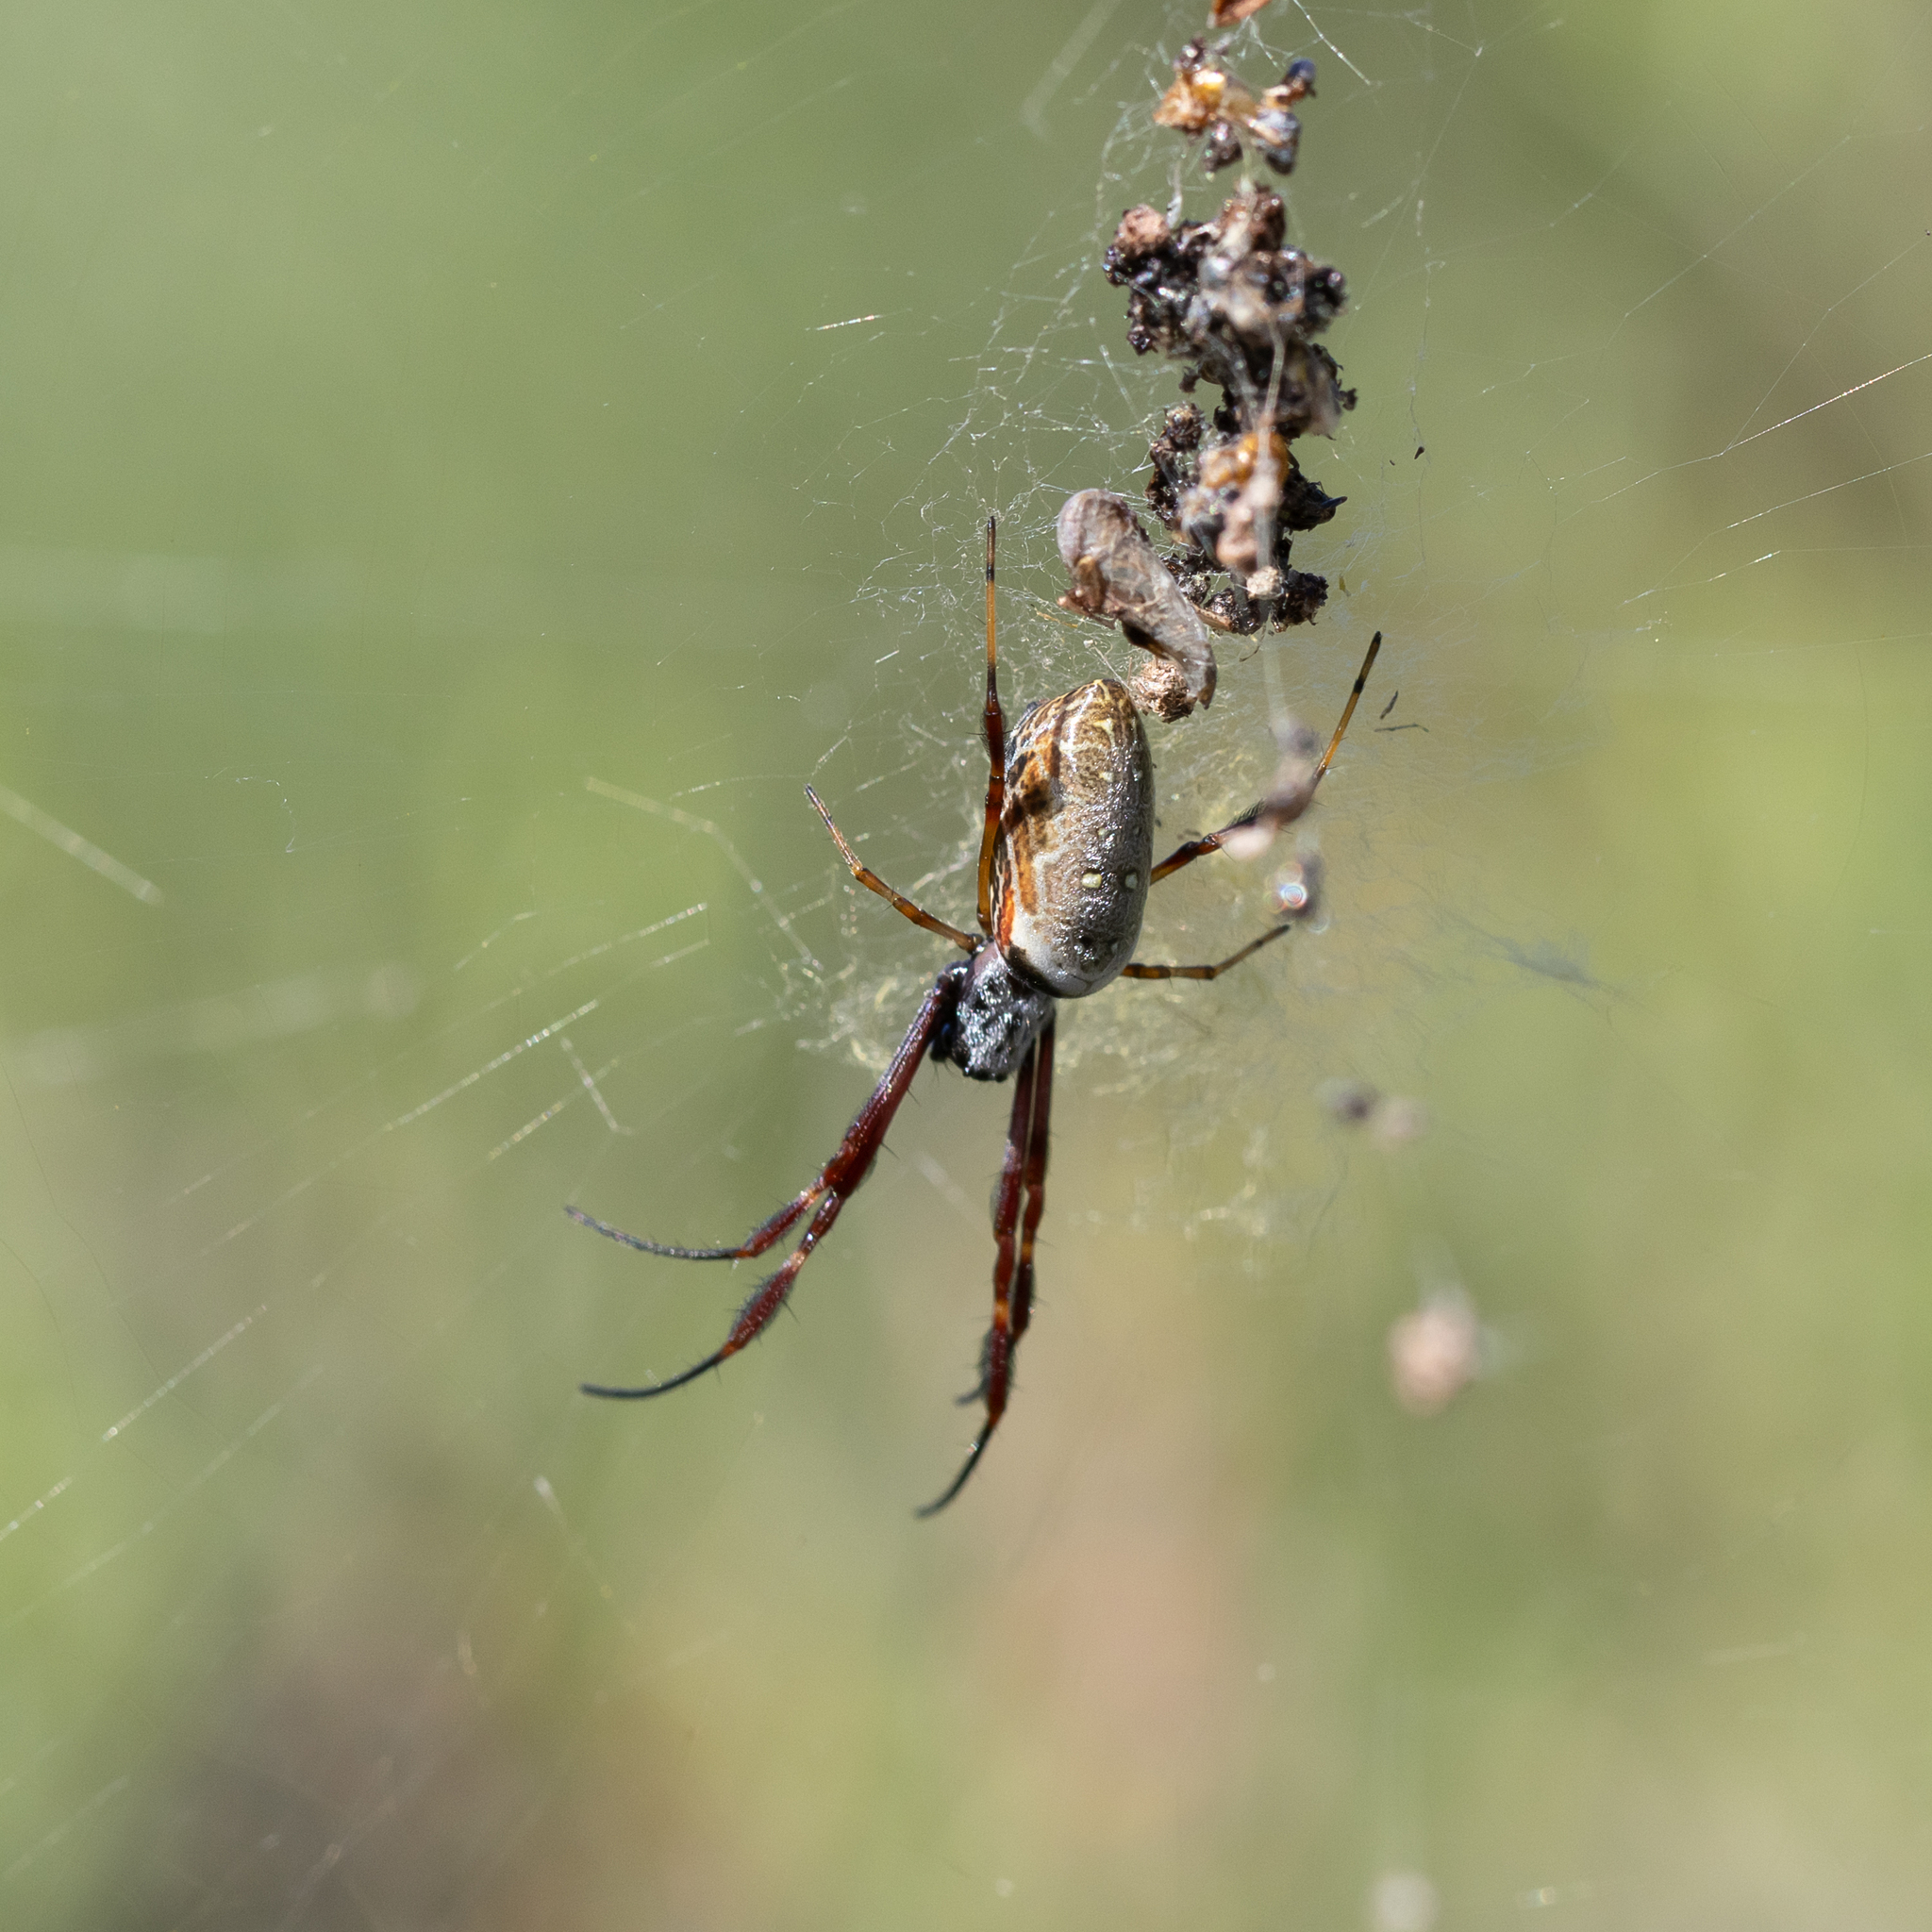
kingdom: Animalia
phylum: Arthropoda
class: Arachnida
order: Araneae
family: Araneidae
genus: Trichonephila
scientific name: Trichonephila edulis
